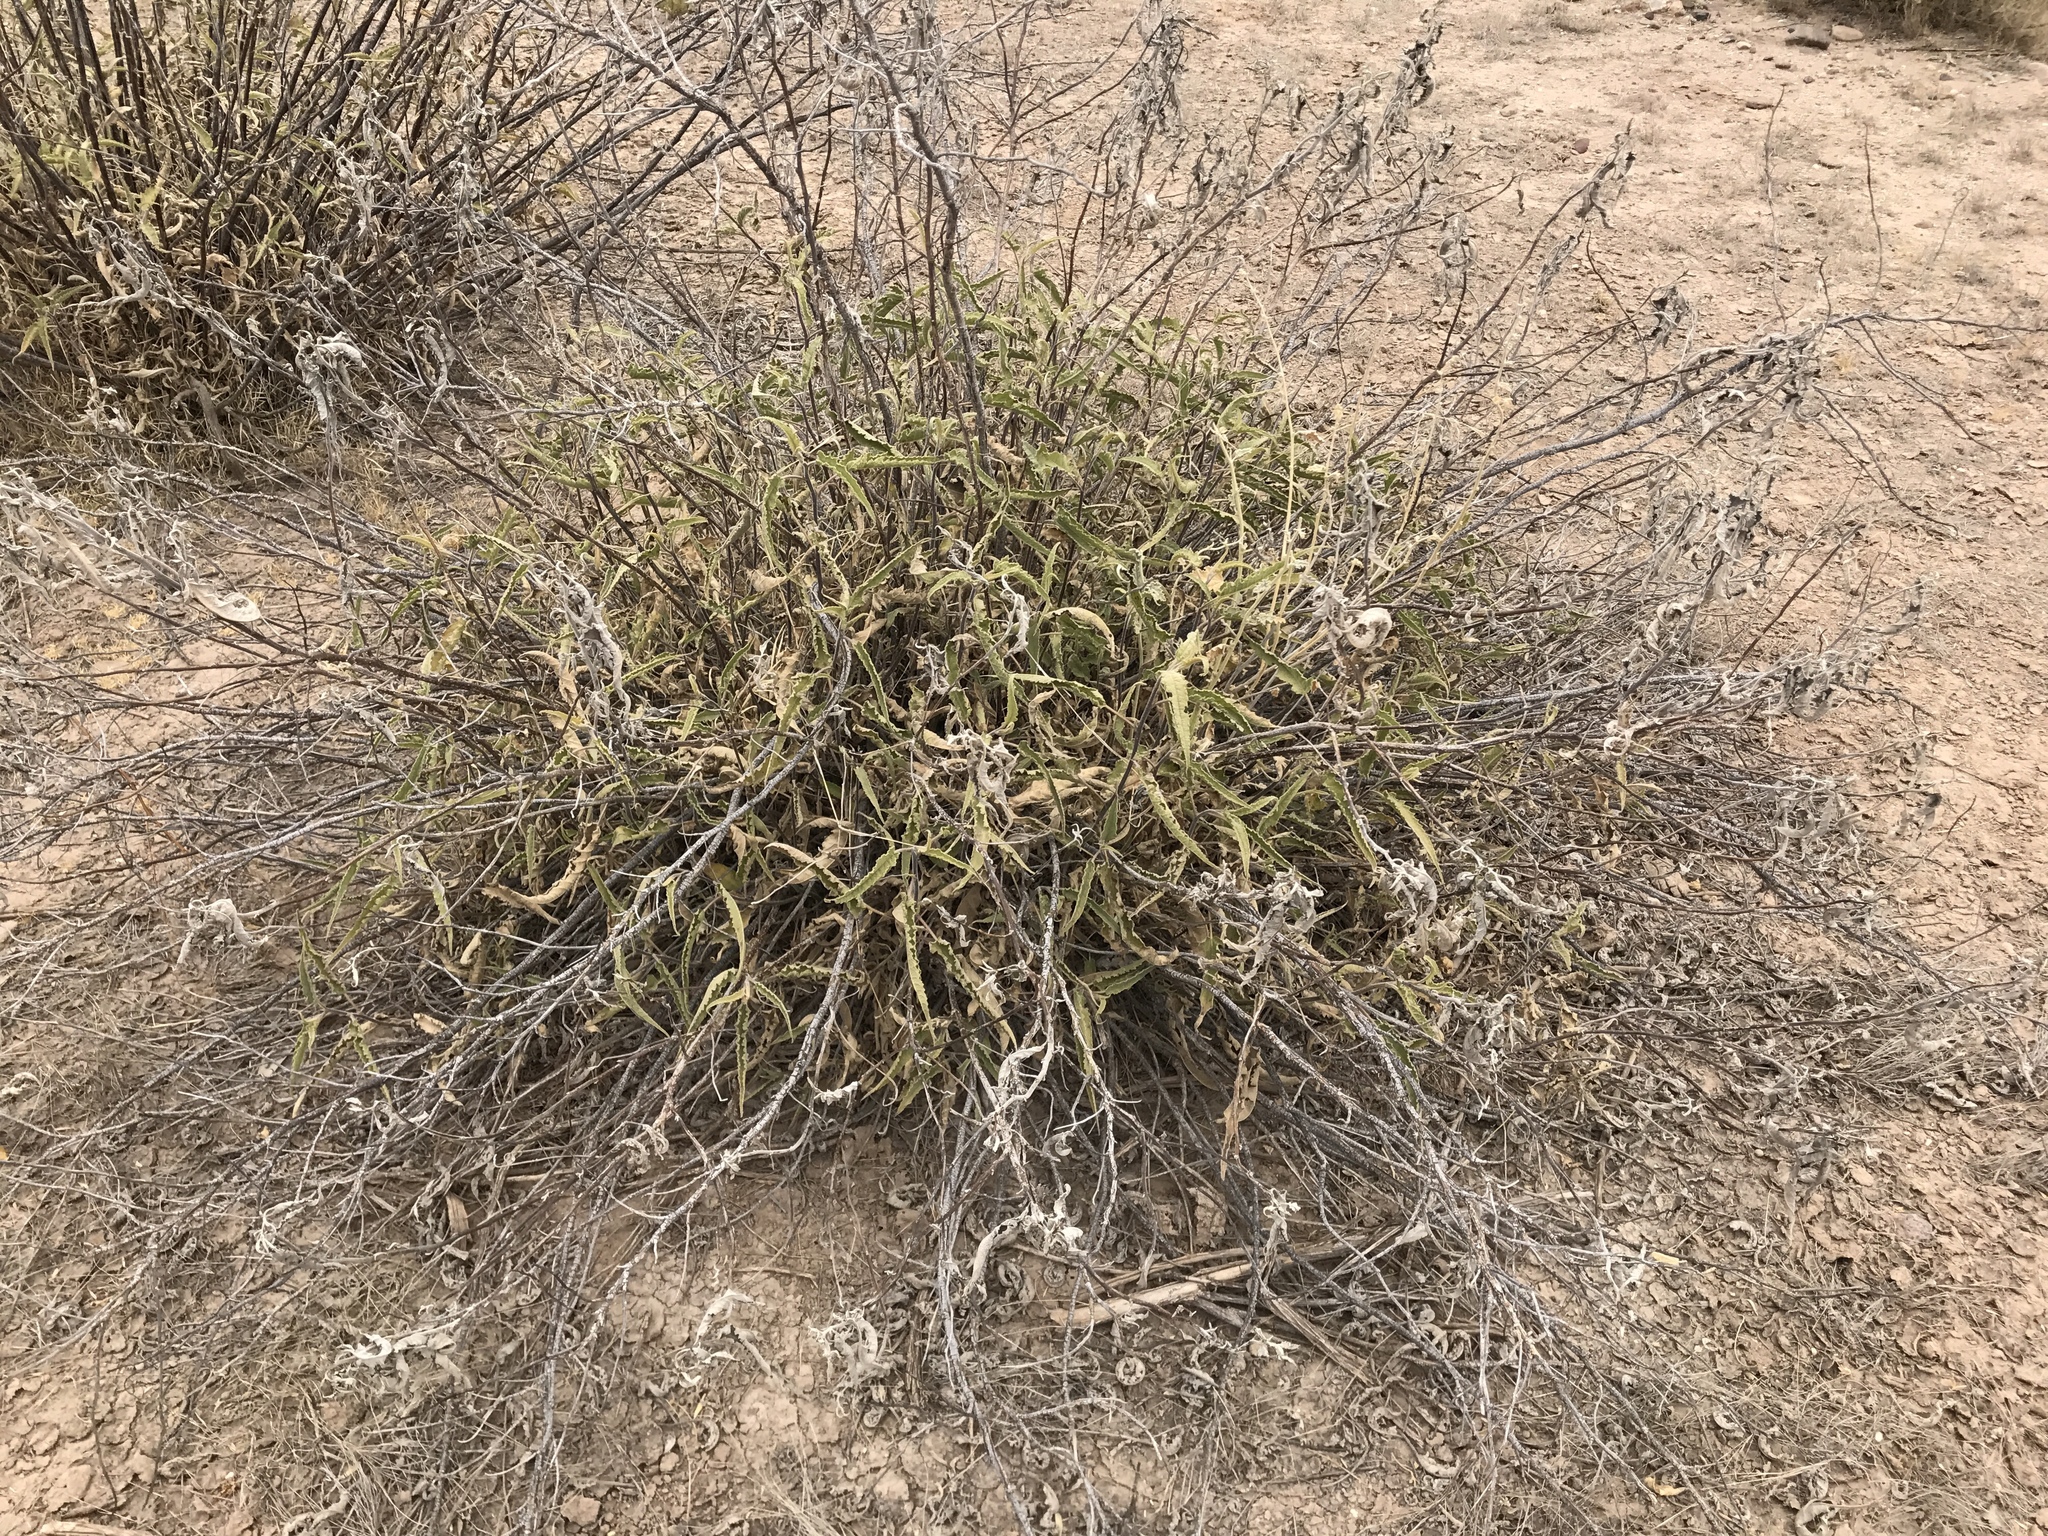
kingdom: Plantae
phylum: Tracheophyta
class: Magnoliopsida
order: Asterales
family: Asteraceae
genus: Ambrosia
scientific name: Ambrosia ambrosioides
